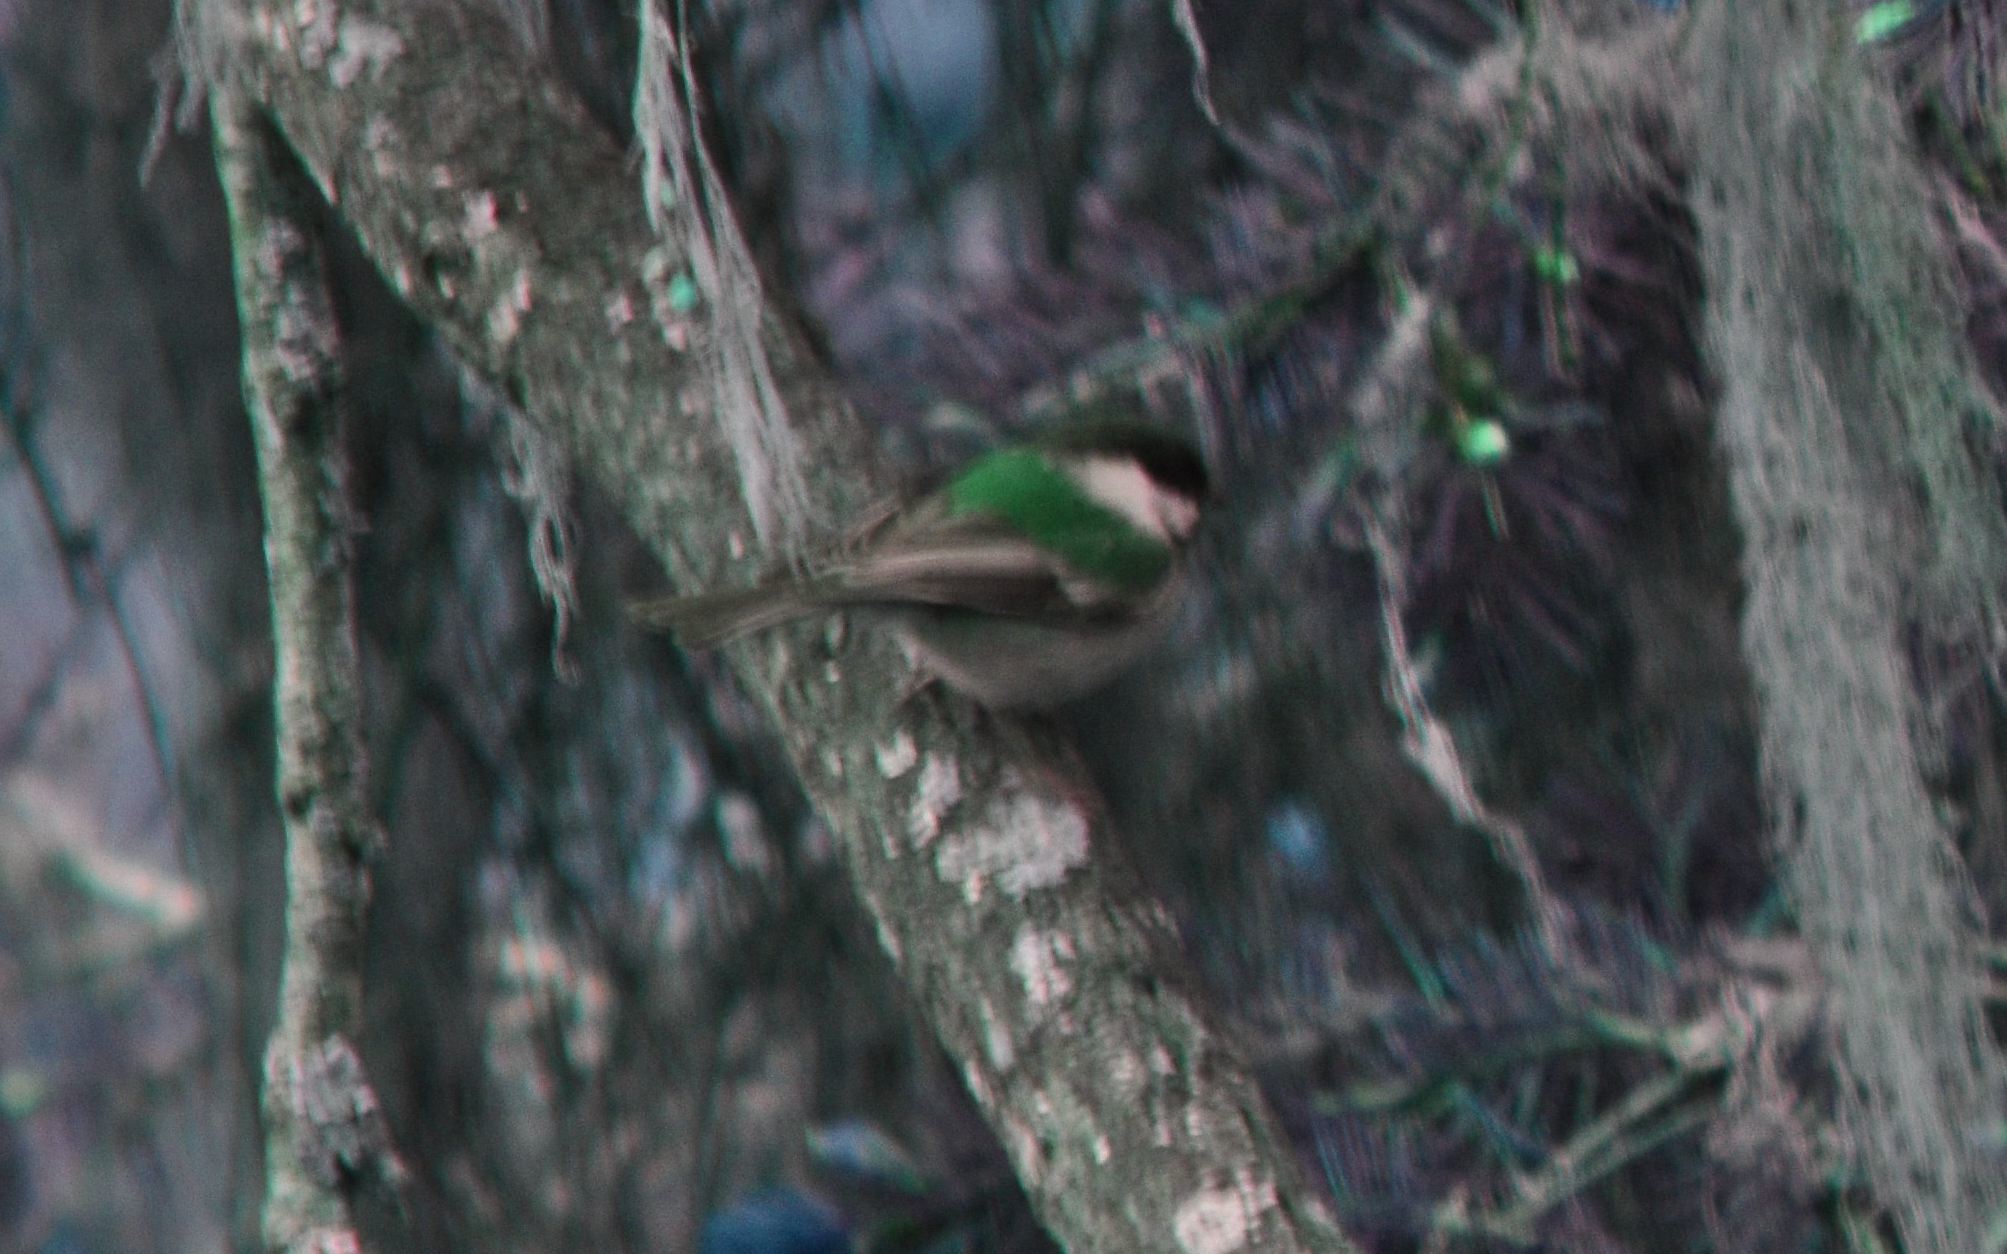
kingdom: Animalia
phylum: Chordata
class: Aves
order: Passeriformes
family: Paridae
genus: Poecile
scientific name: Poecile rufescens
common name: Chestnut-backed chickadee
